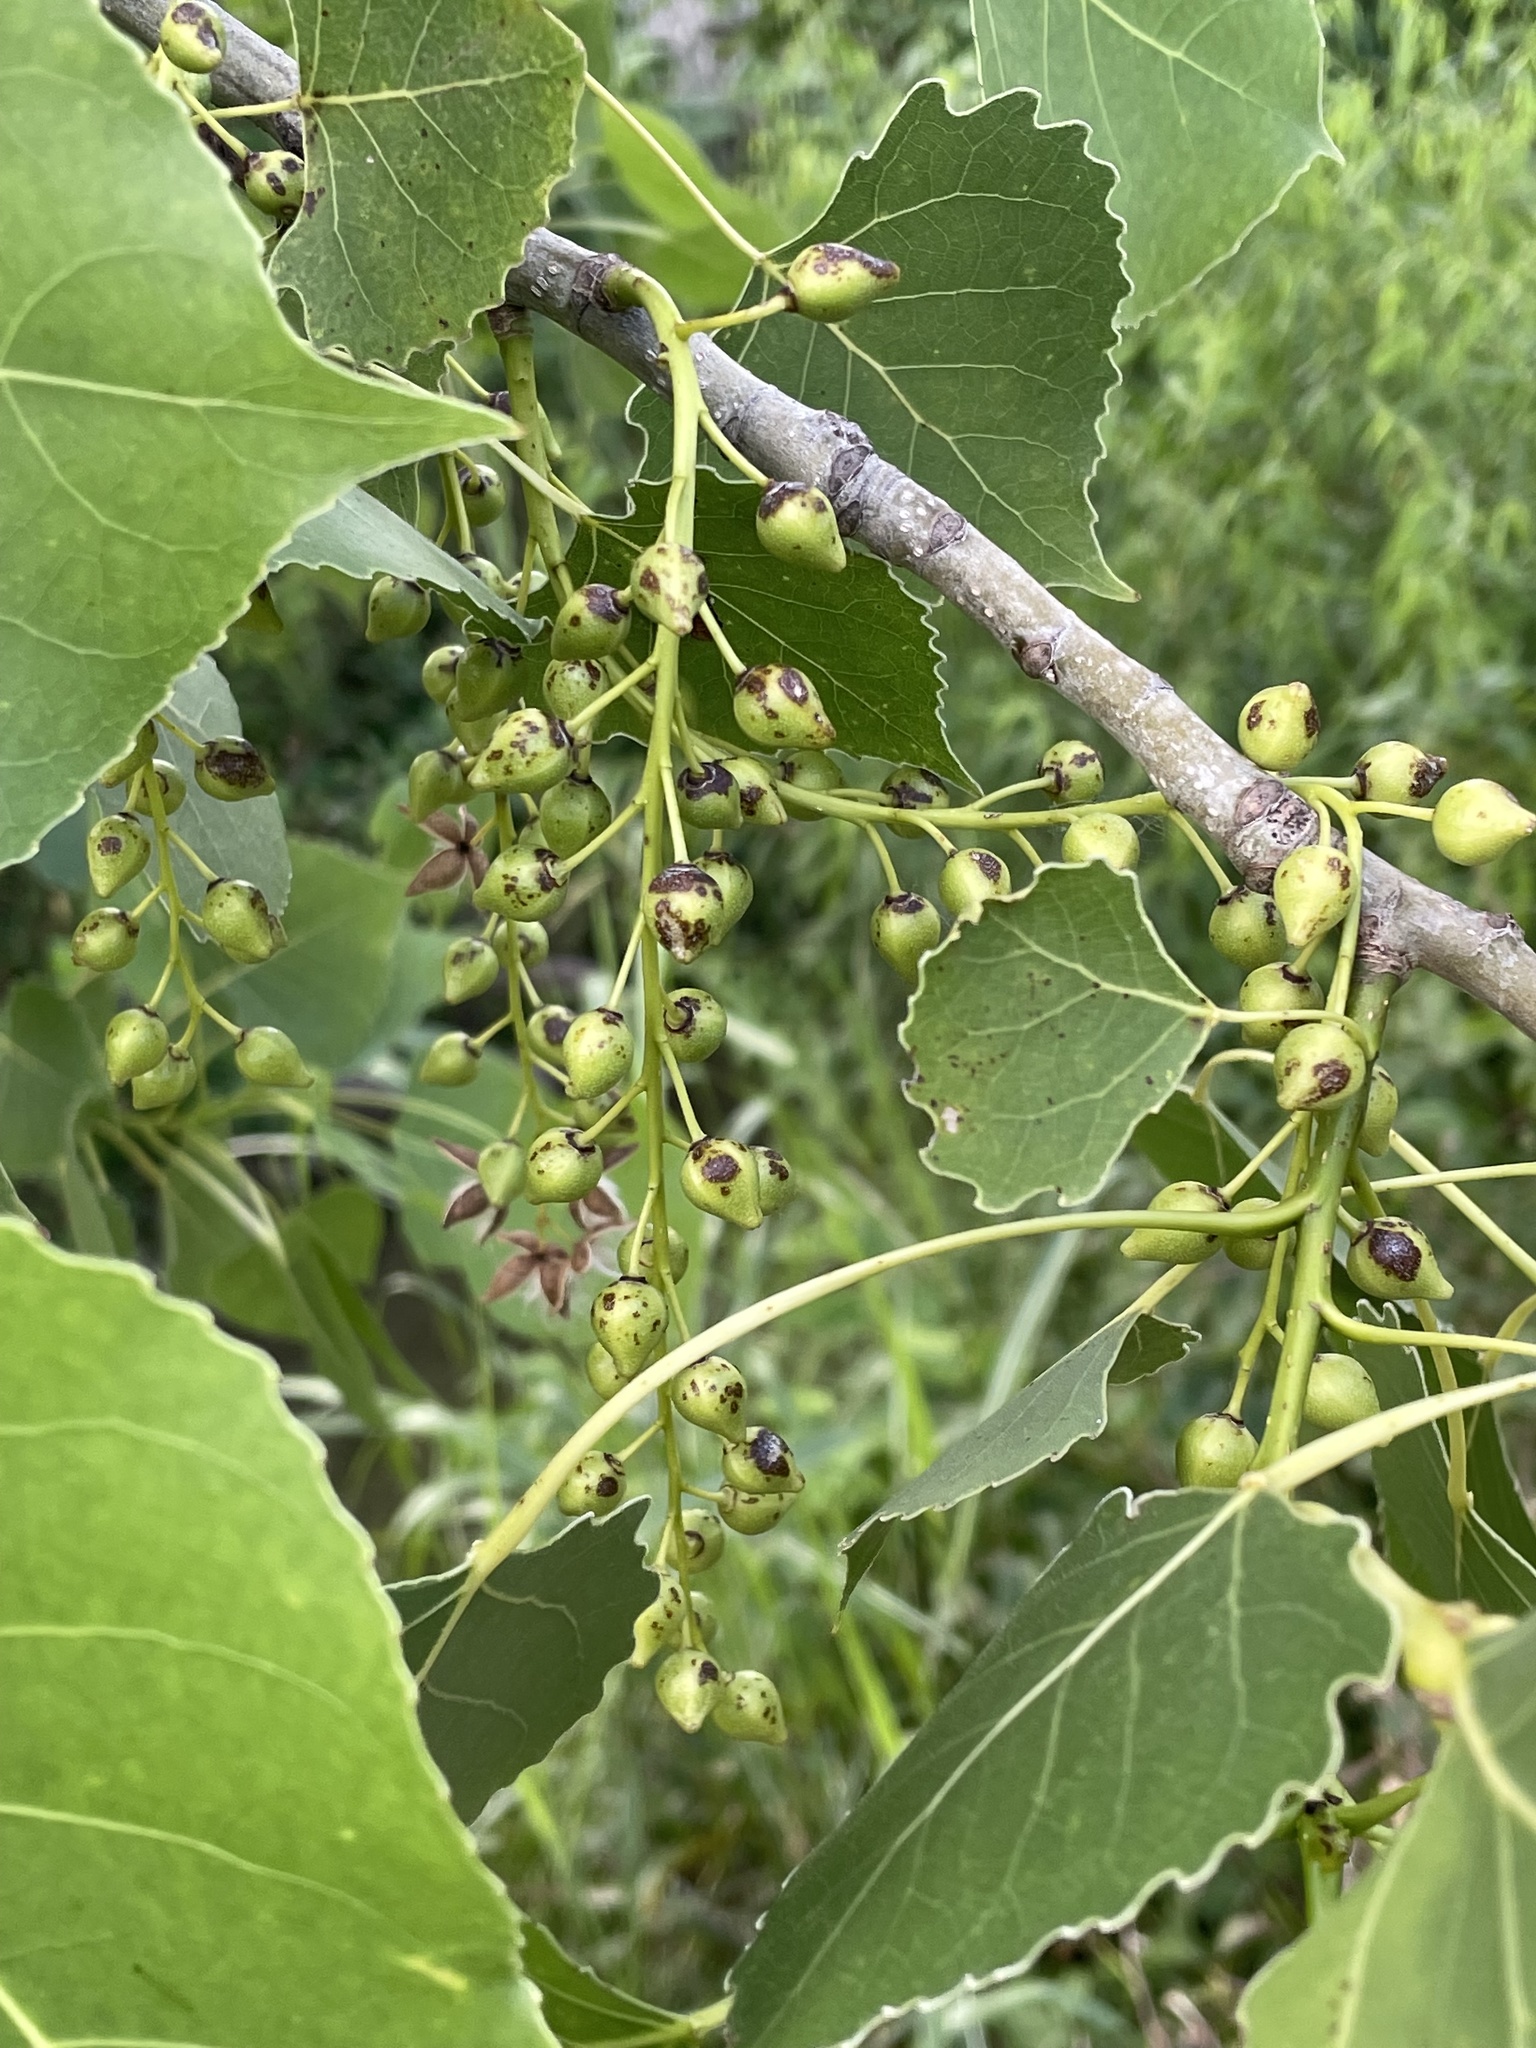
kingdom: Plantae
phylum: Tracheophyta
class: Magnoliopsida
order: Malpighiales
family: Salicaceae
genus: Populus
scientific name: Populus deltoides
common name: Eastern cottonwood
